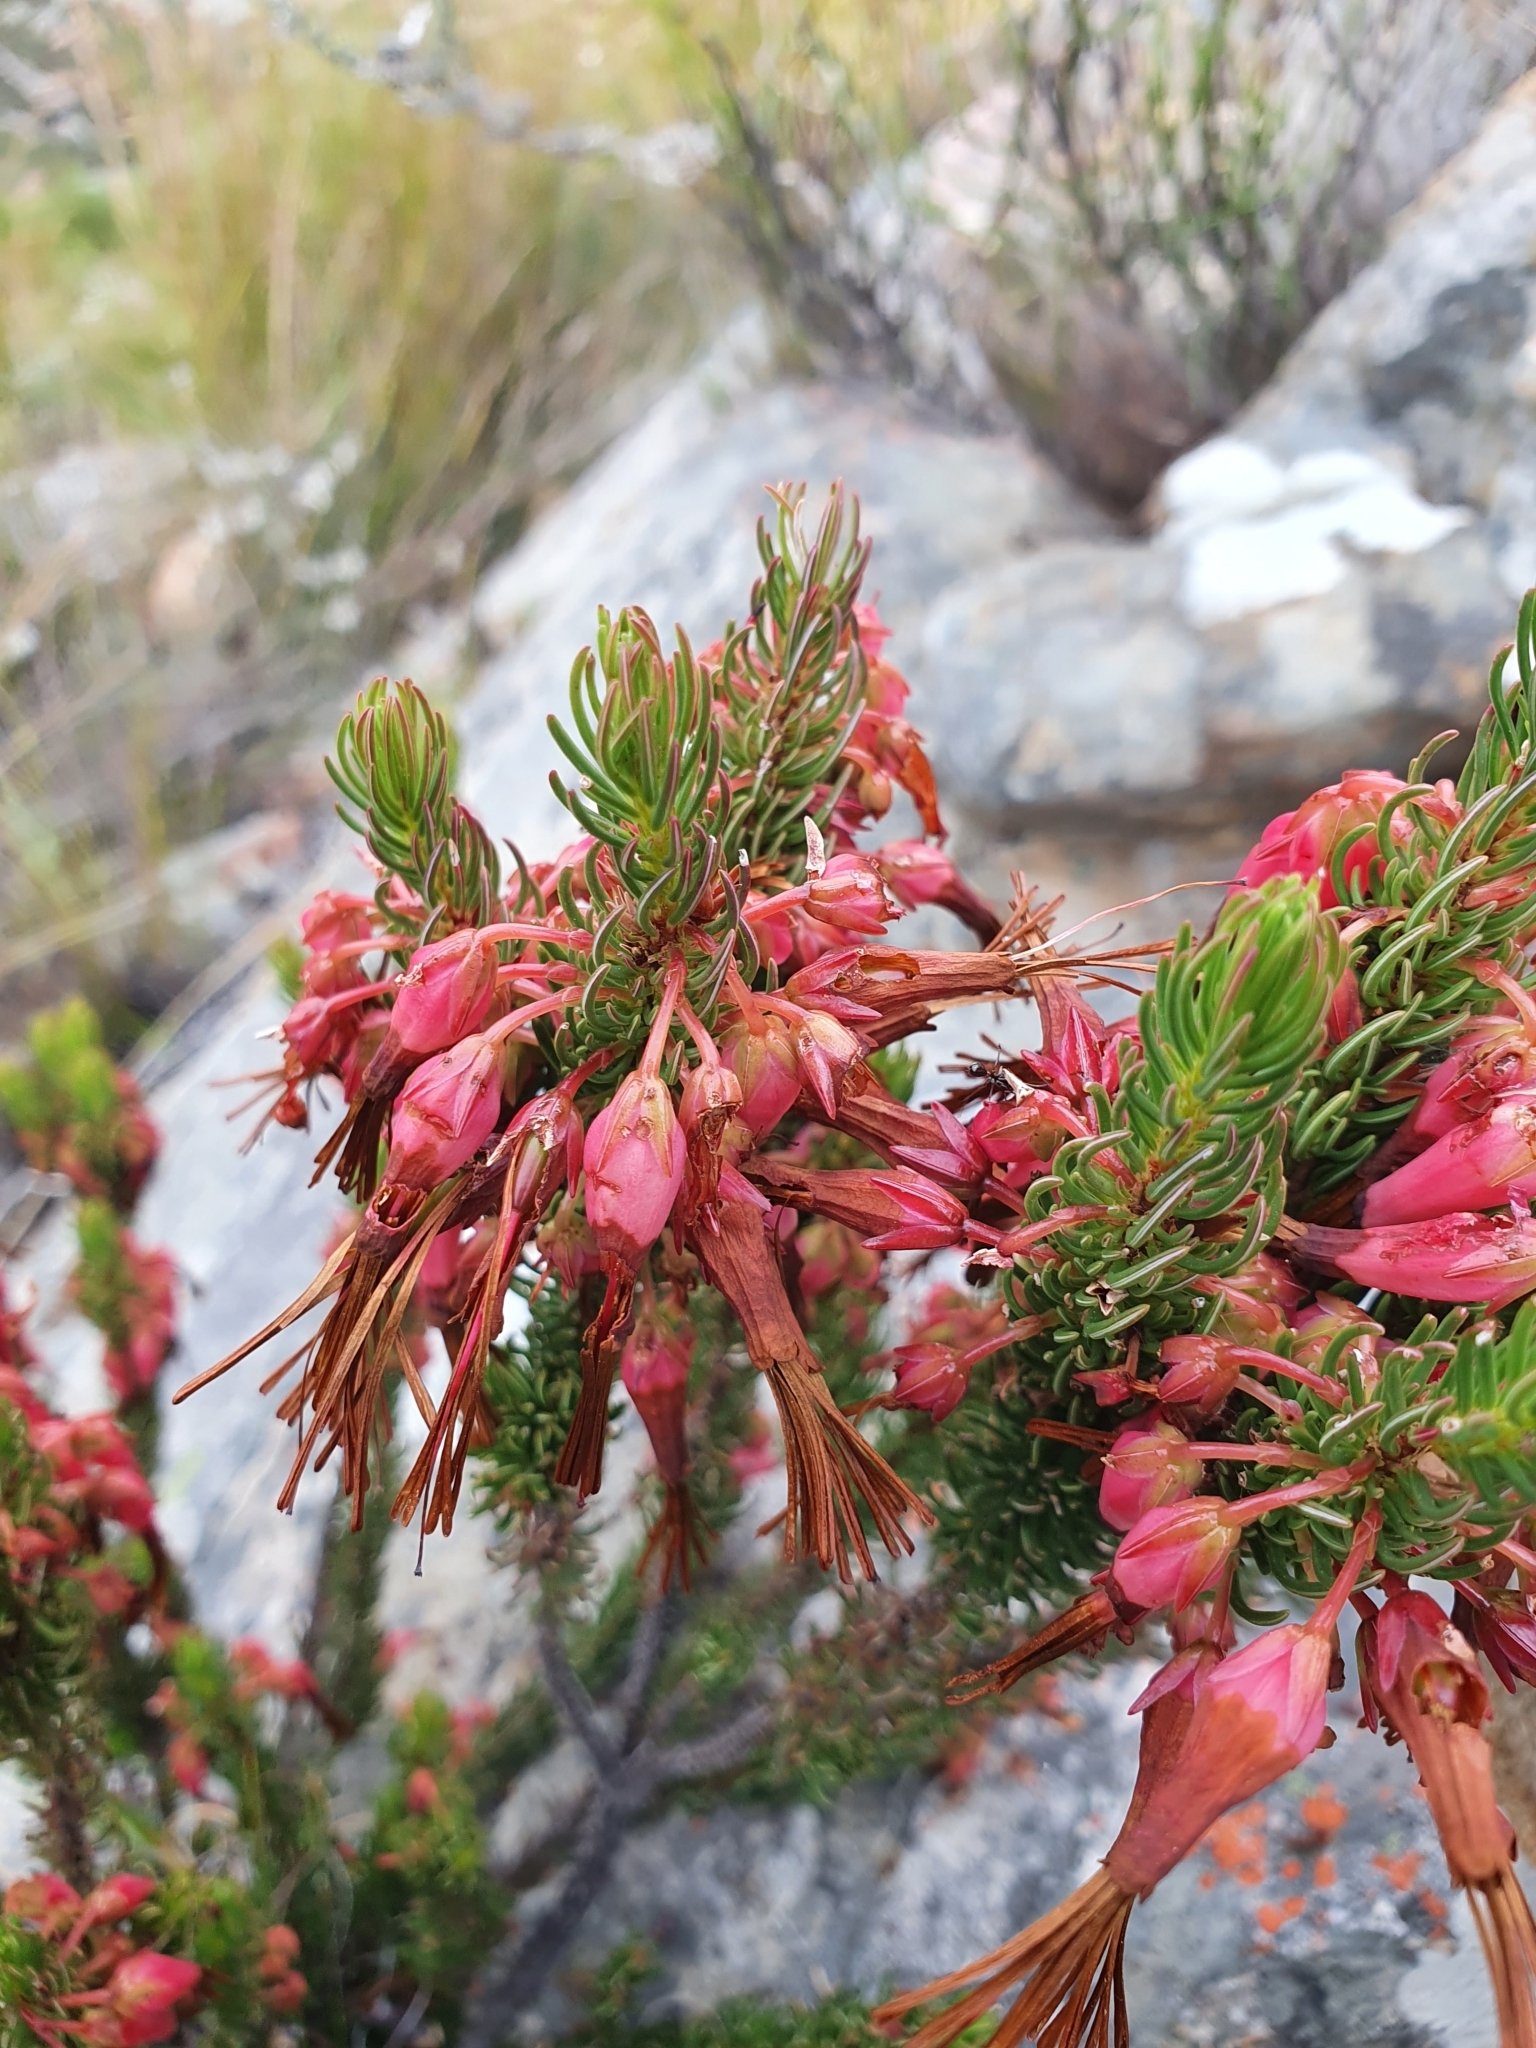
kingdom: Plantae
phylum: Tracheophyta
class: Magnoliopsida
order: Ericales
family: Ericaceae
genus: Erica
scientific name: Erica plukenetii
